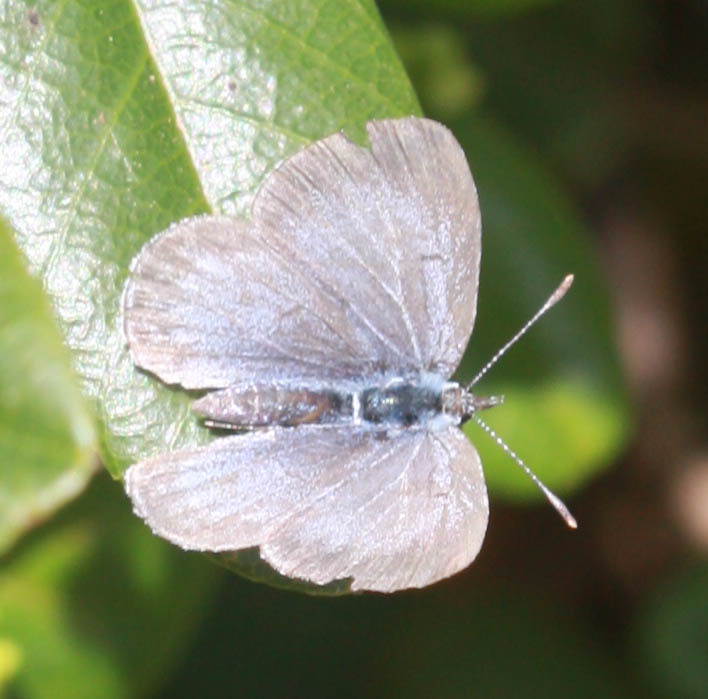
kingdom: Animalia
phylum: Arthropoda
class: Insecta
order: Lepidoptera
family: Lycaenidae
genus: Celastrina
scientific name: Celastrina ladon
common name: Spring azure
